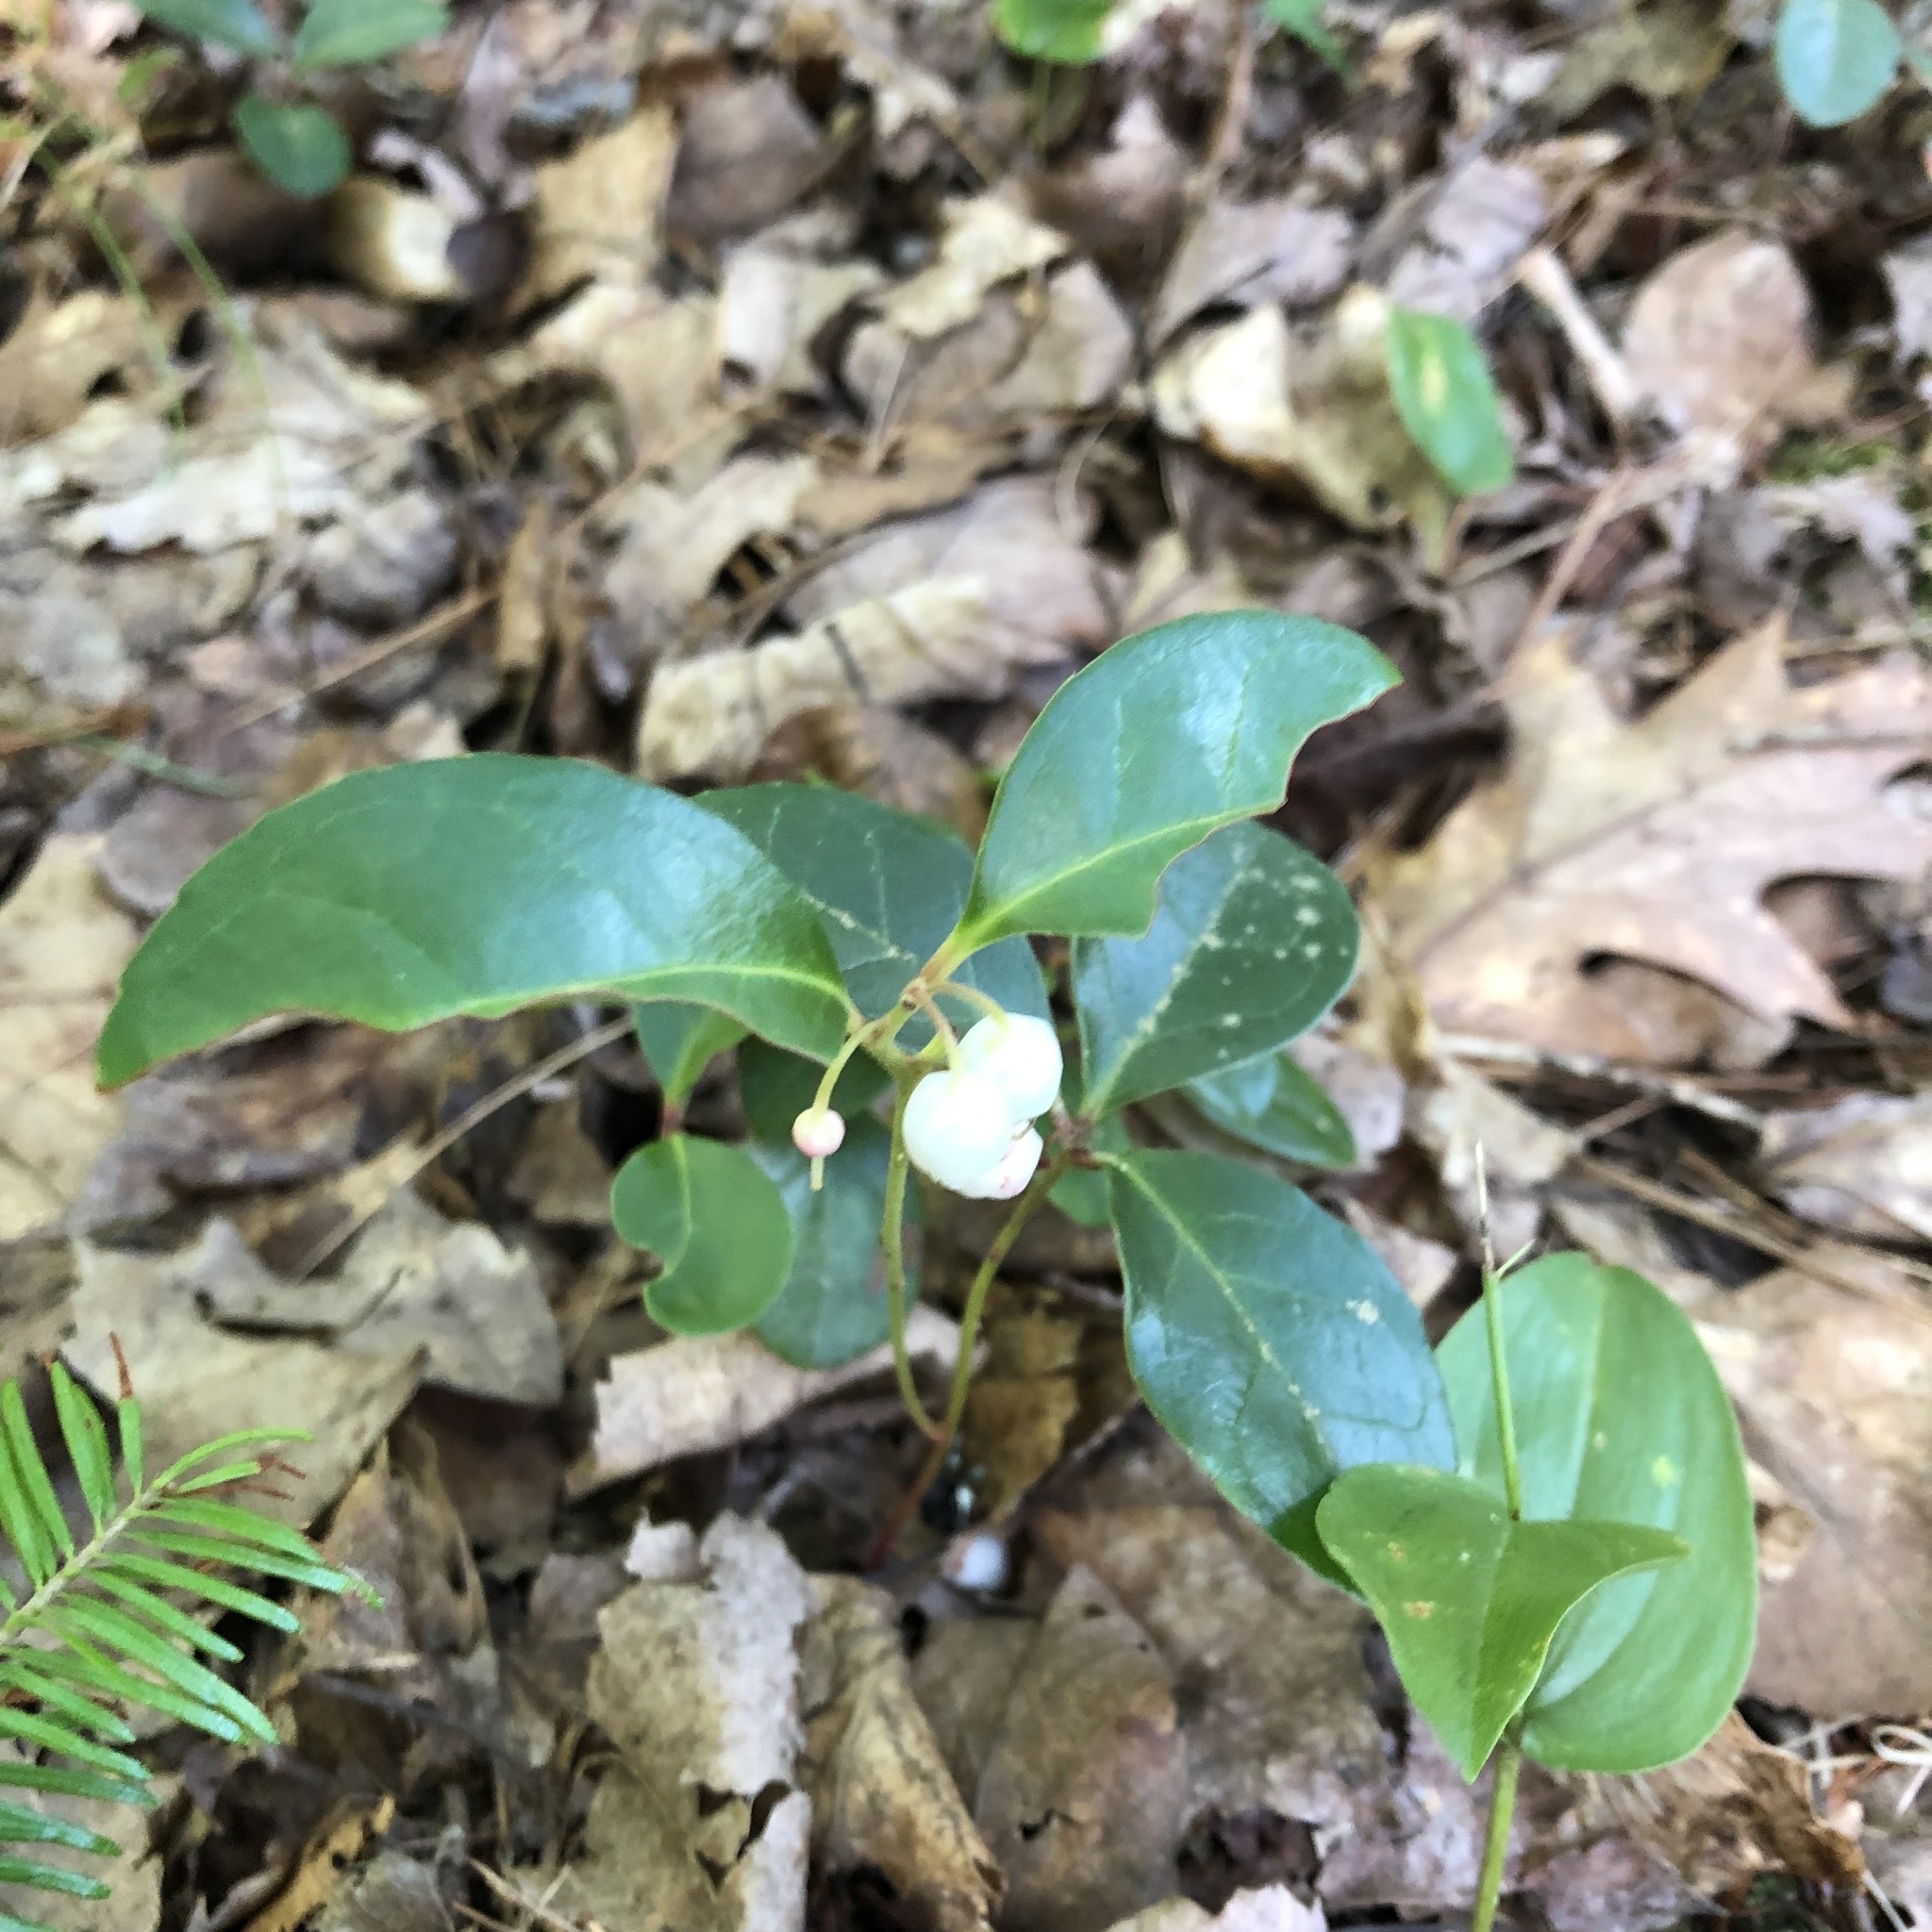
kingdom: Plantae
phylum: Tracheophyta
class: Magnoliopsida
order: Ericales
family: Ericaceae
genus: Gaultheria
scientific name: Gaultheria procumbens
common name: Checkerberry
